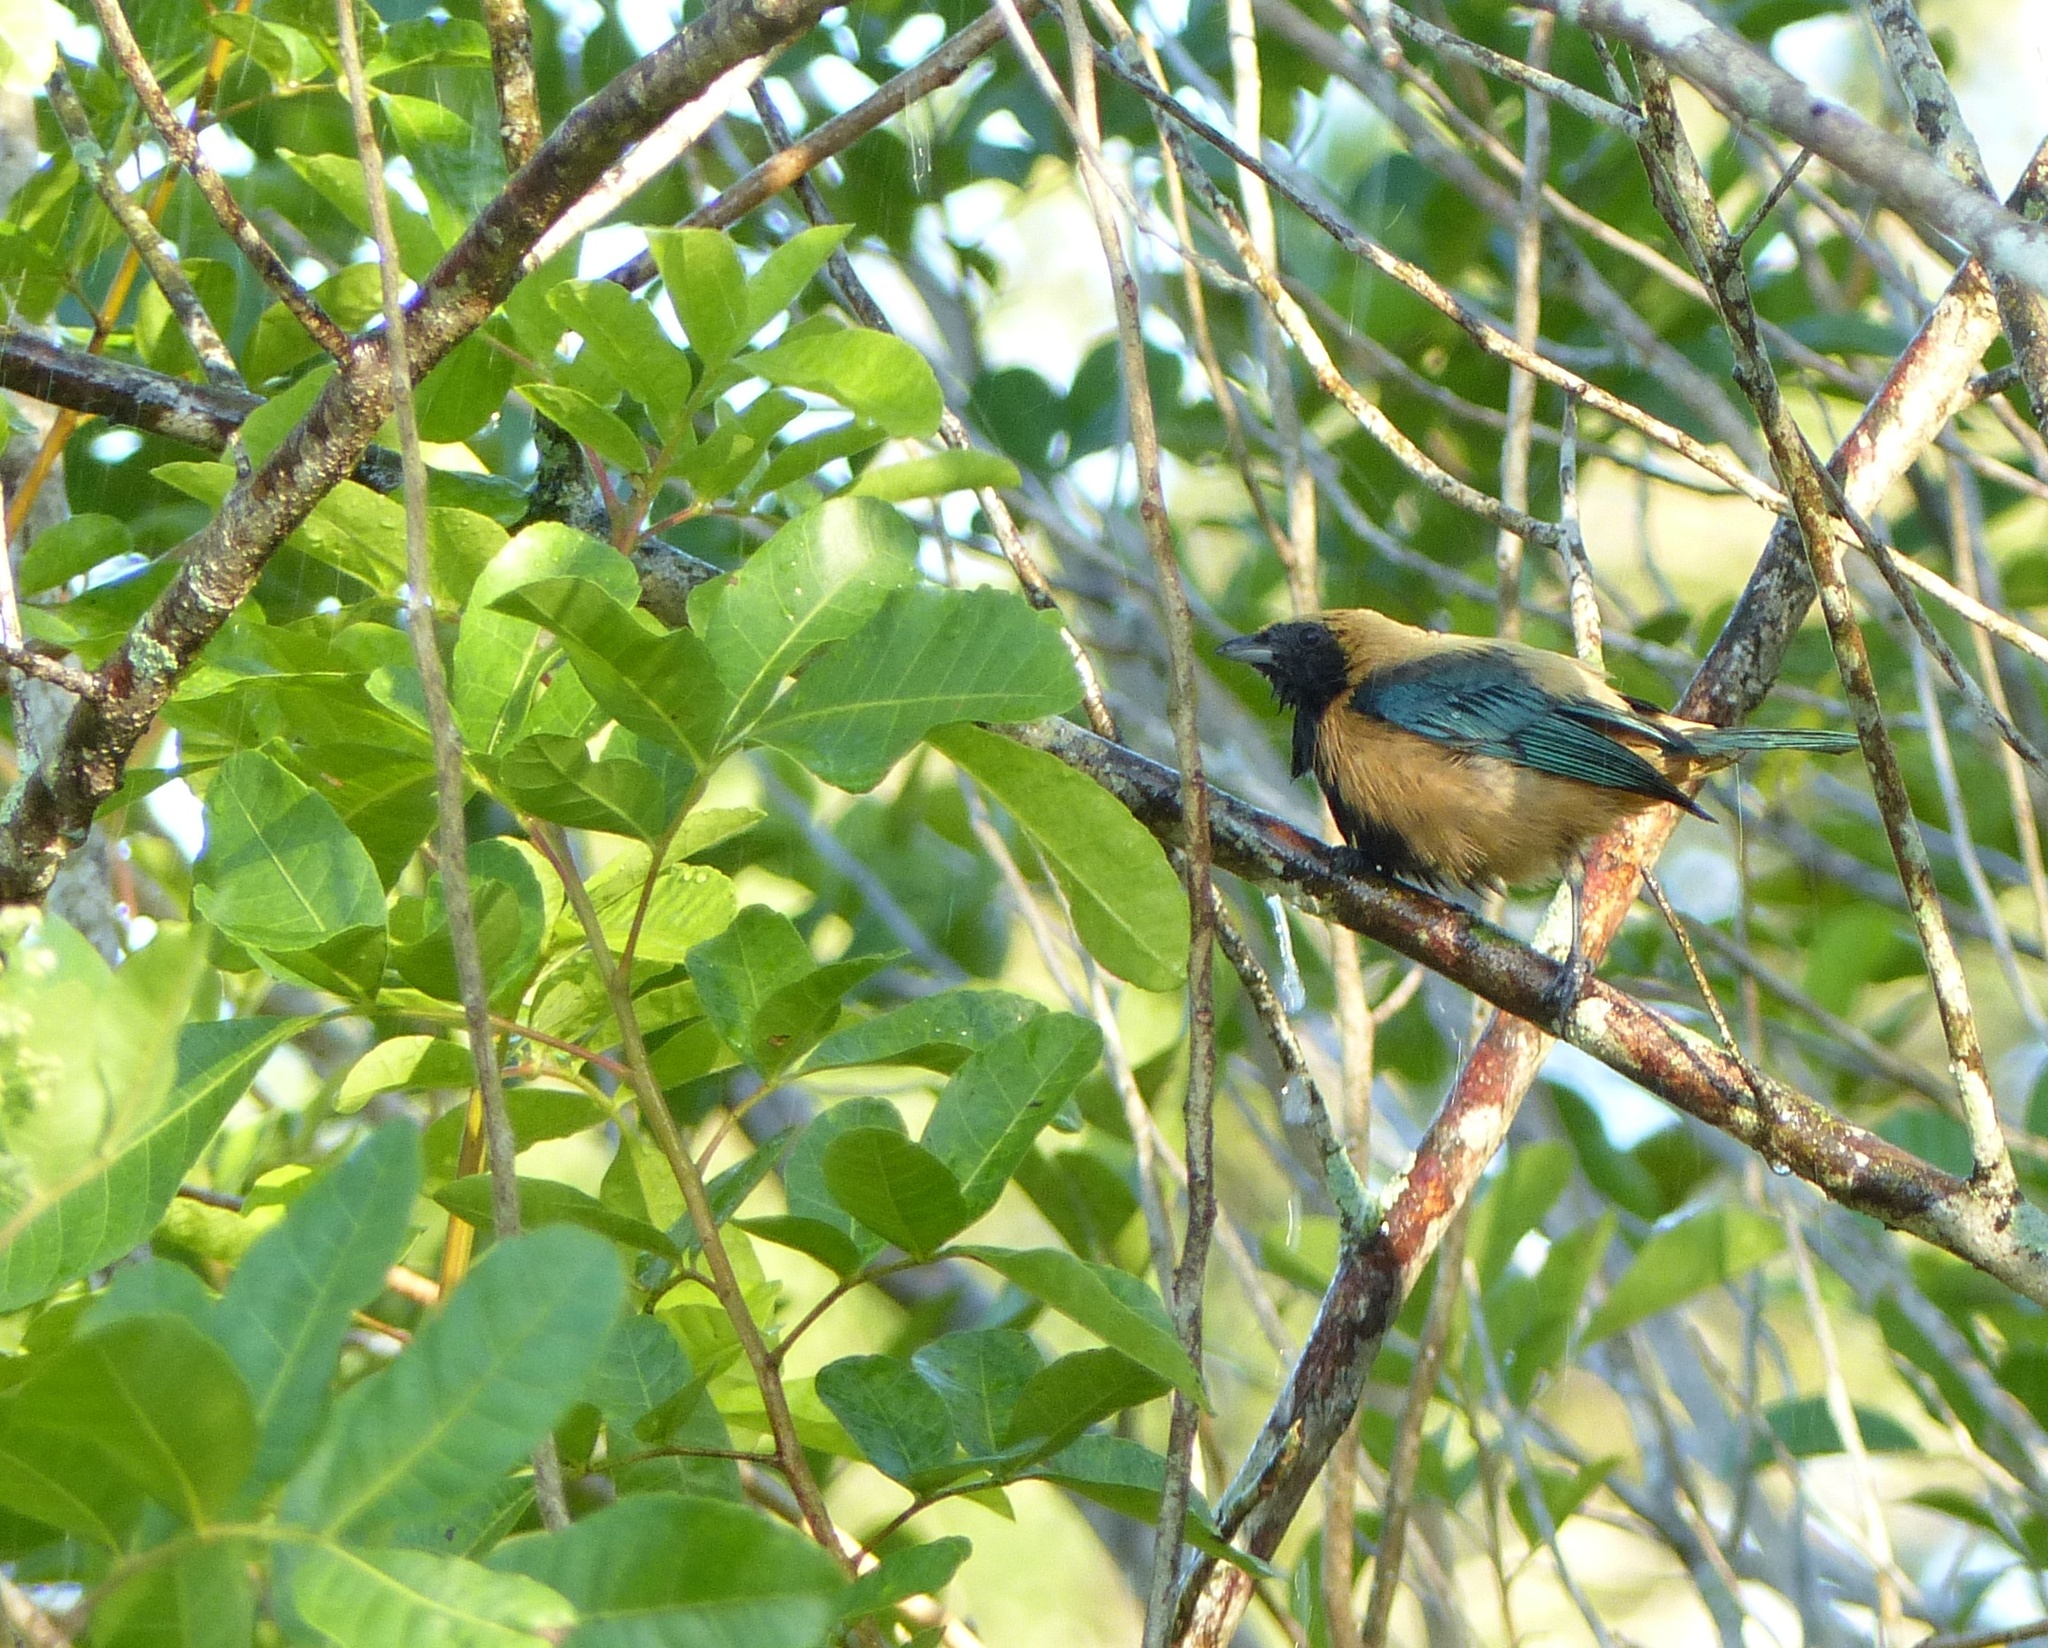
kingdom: Animalia
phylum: Chordata
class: Aves
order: Passeriformes
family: Thraupidae
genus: Stilpnia
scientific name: Stilpnia cayana
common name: Burnished-buff tanager
